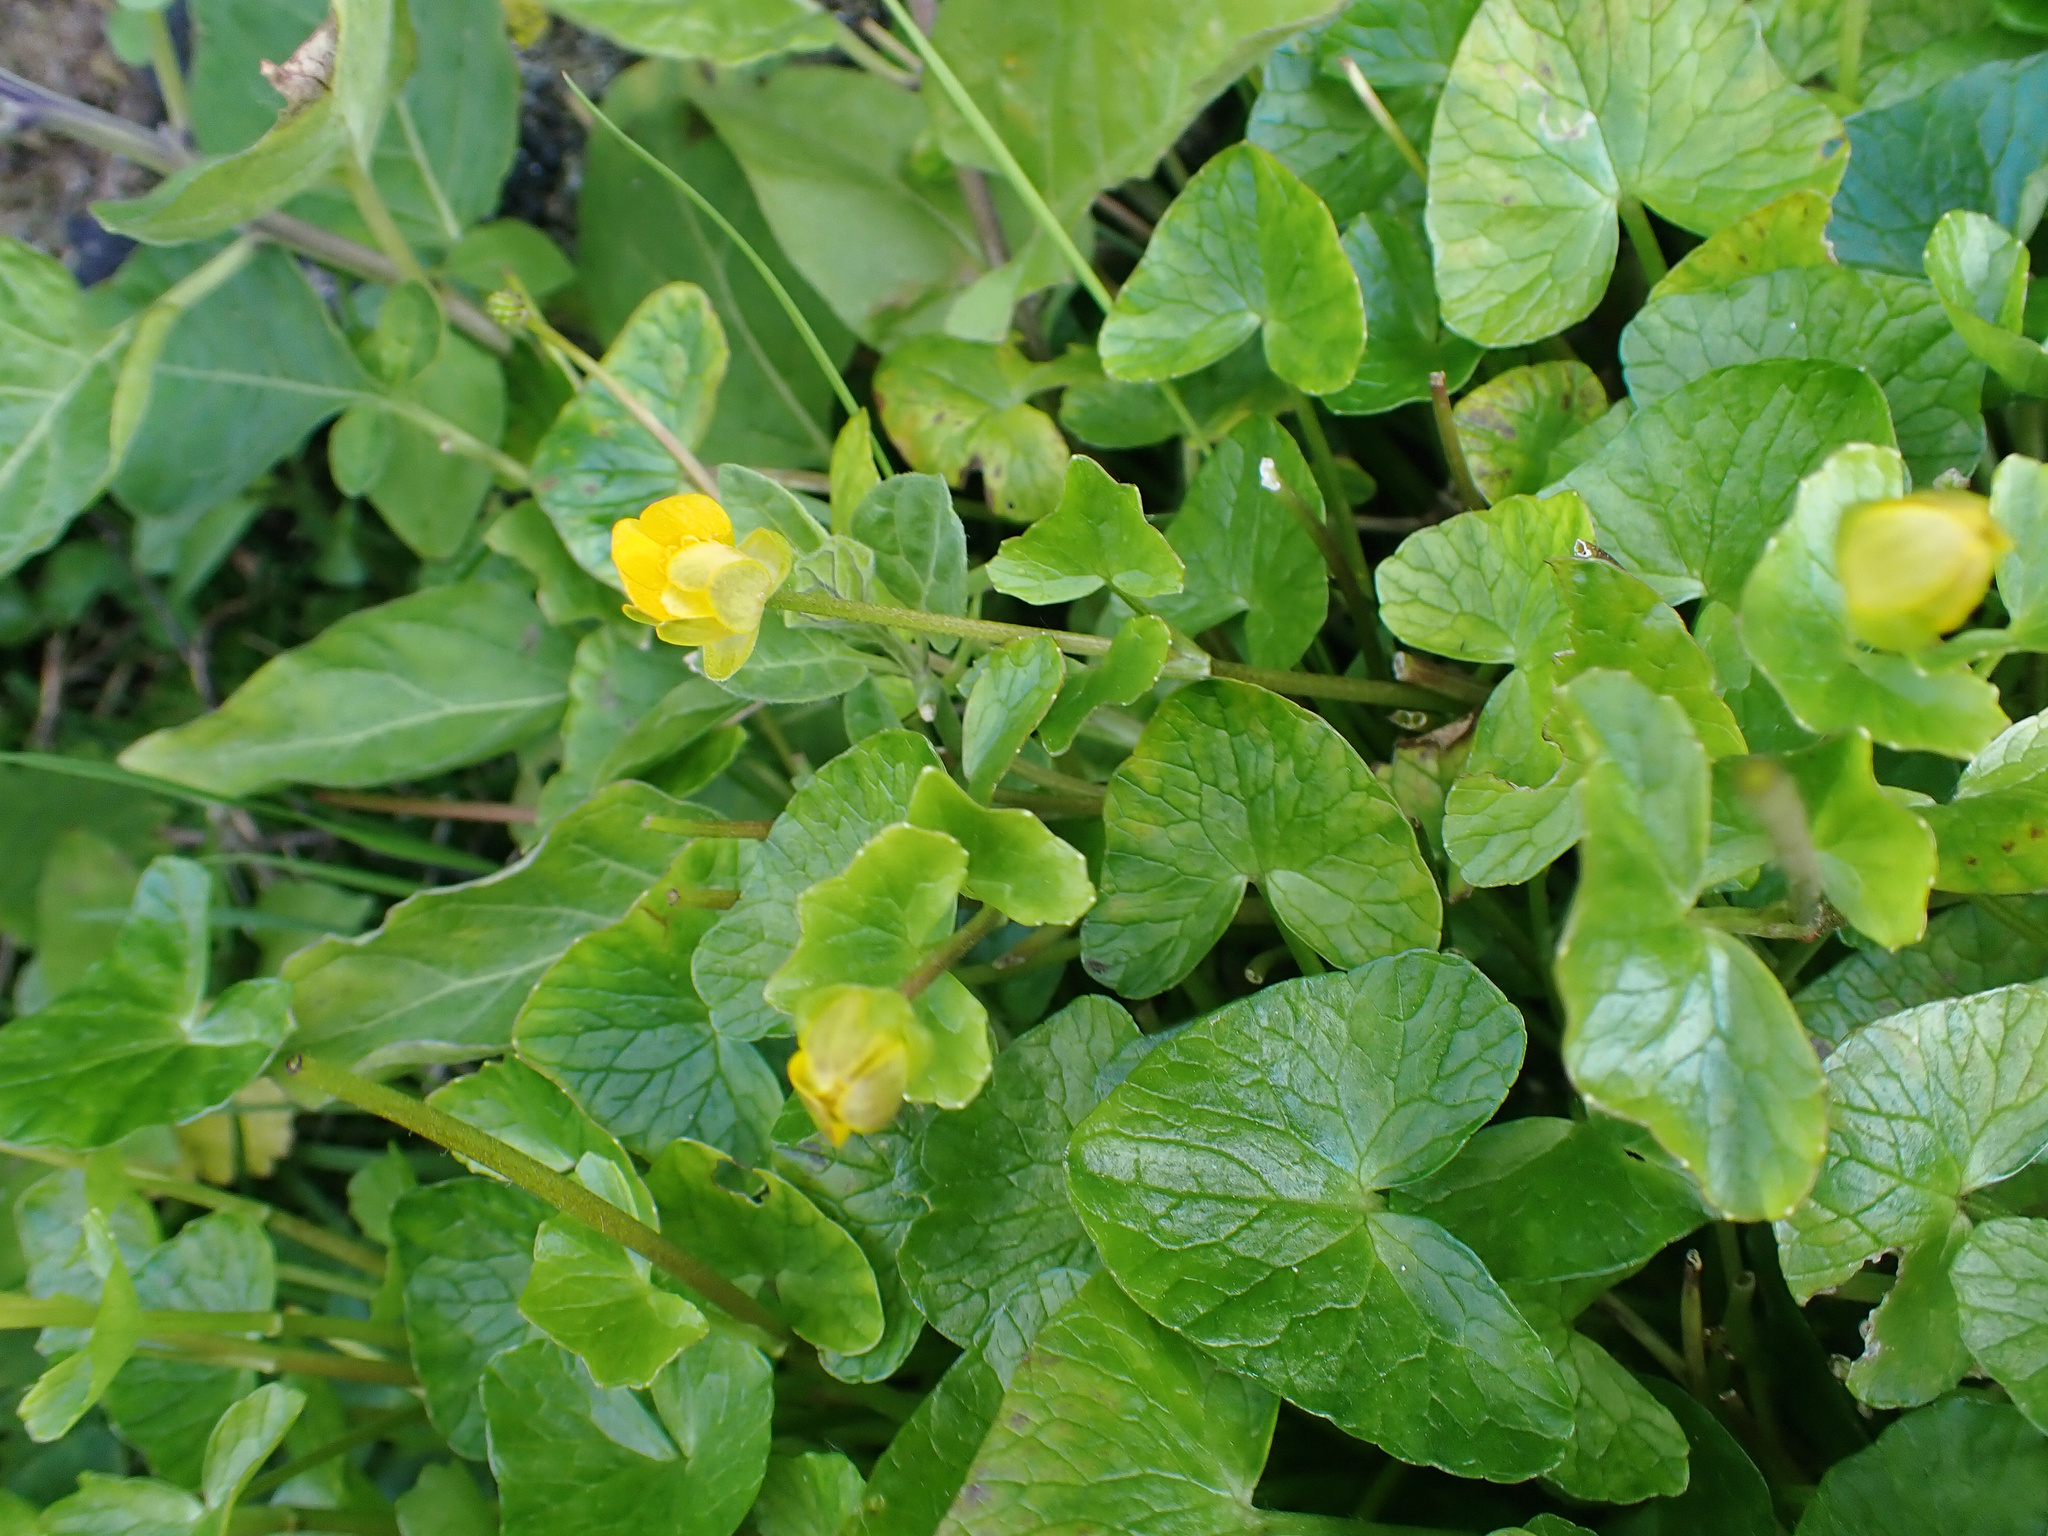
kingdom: Plantae
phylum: Tracheophyta
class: Magnoliopsida
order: Ranunculales
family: Ranunculaceae
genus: Ficaria
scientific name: Ficaria verna
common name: Lesser celandine
